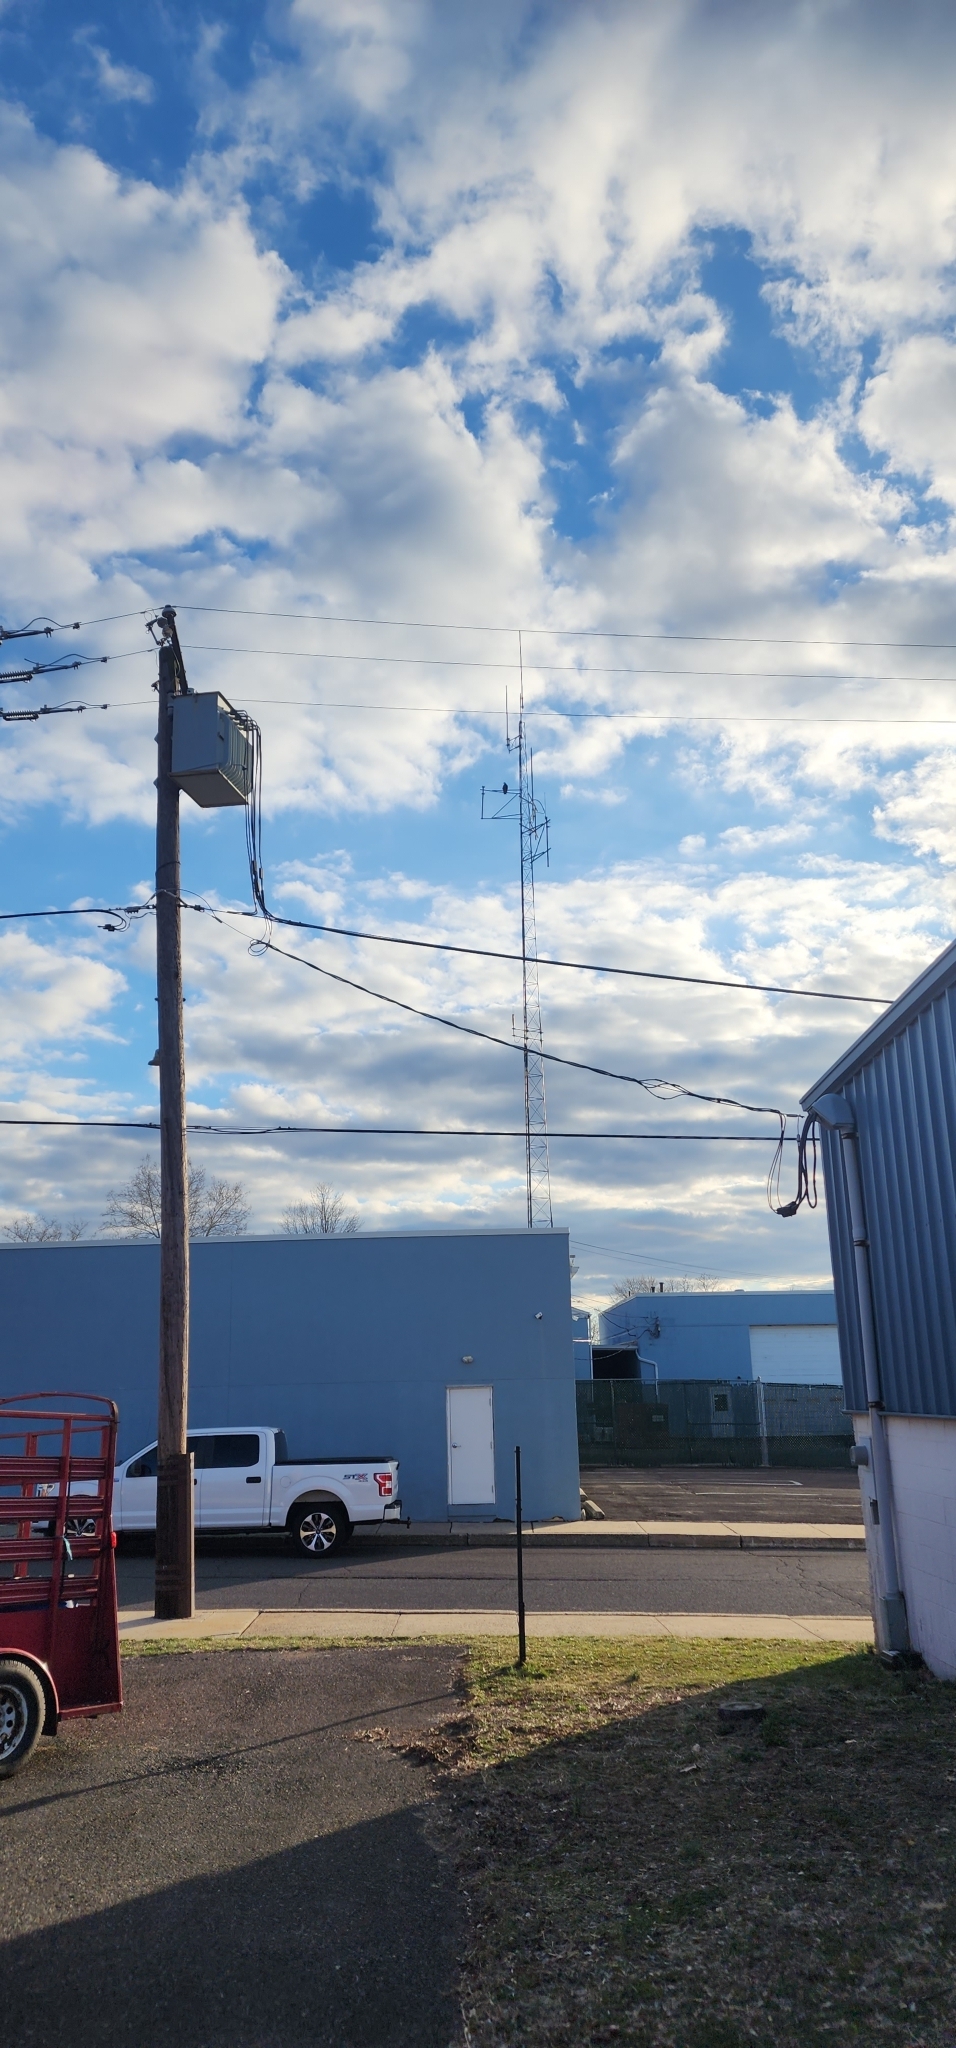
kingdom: Animalia
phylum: Chordata
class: Aves
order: Accipitriformes
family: Cathartidae
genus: Coragyps
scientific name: Coragyps atratus
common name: Black vulture
